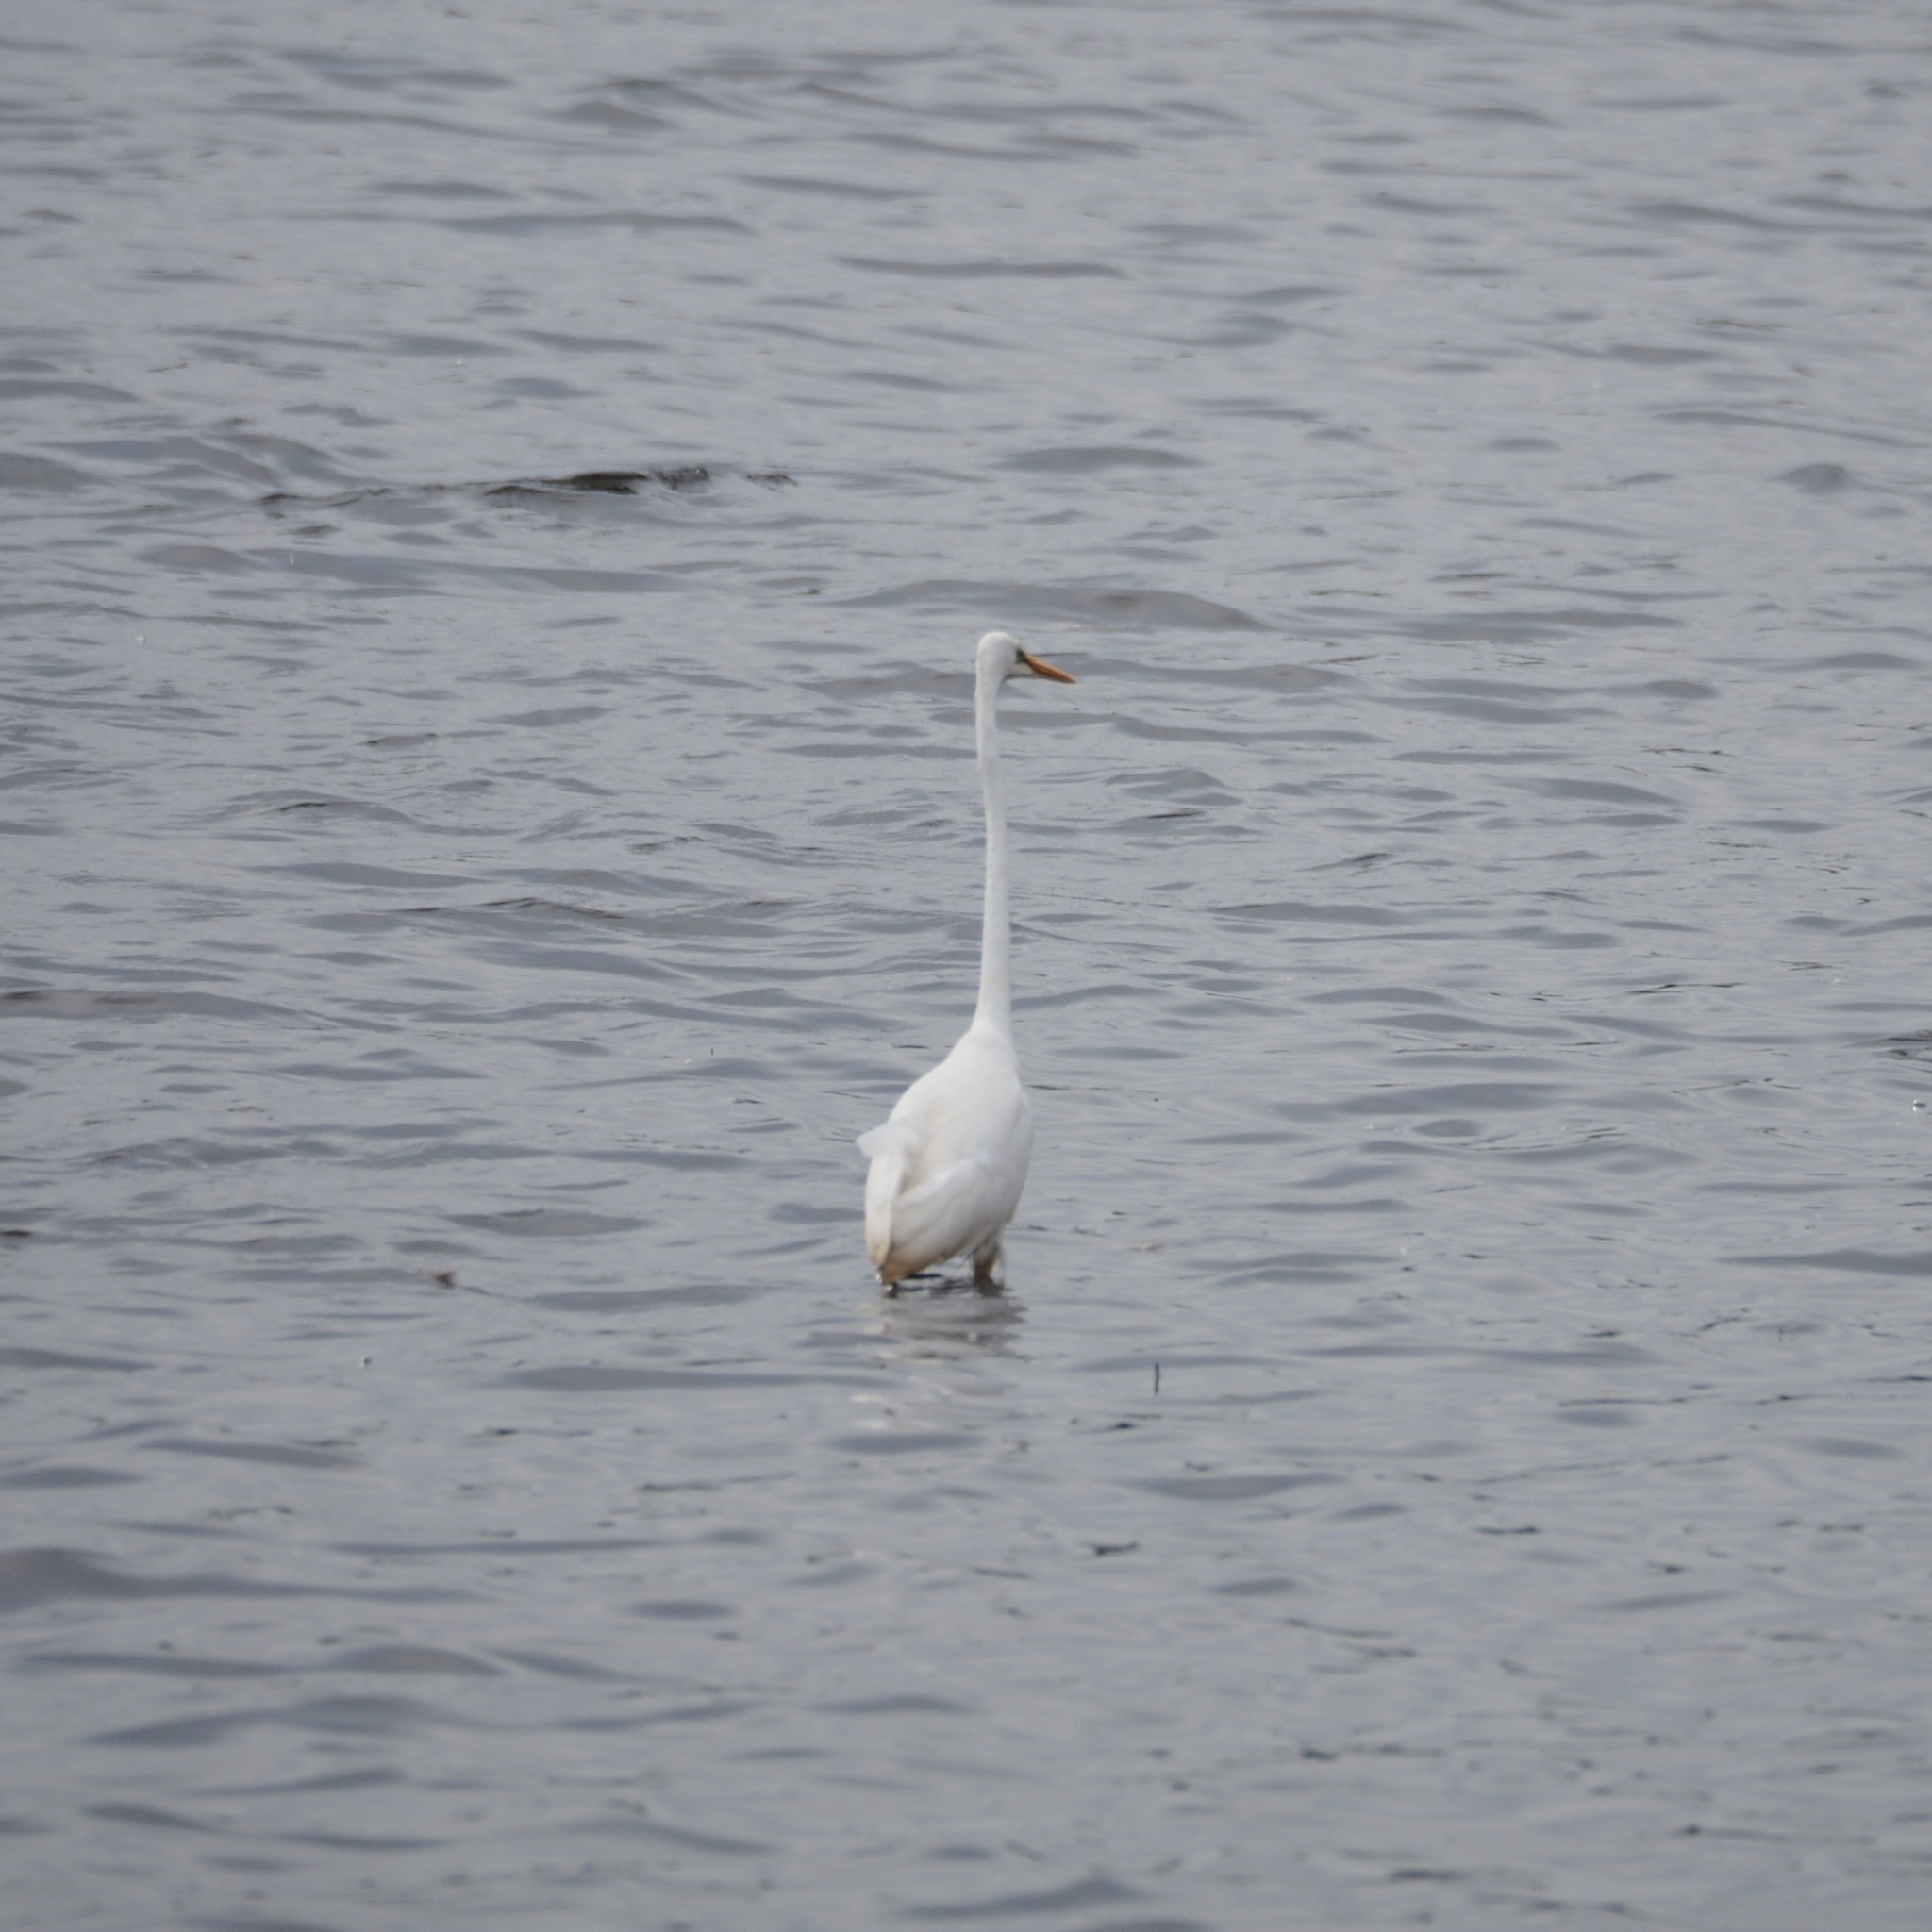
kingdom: Animalia
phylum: Chordata
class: Aves
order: Pelecaniformes
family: Ardeidae
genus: Ardea
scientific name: Ardea alba
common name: Great egret
